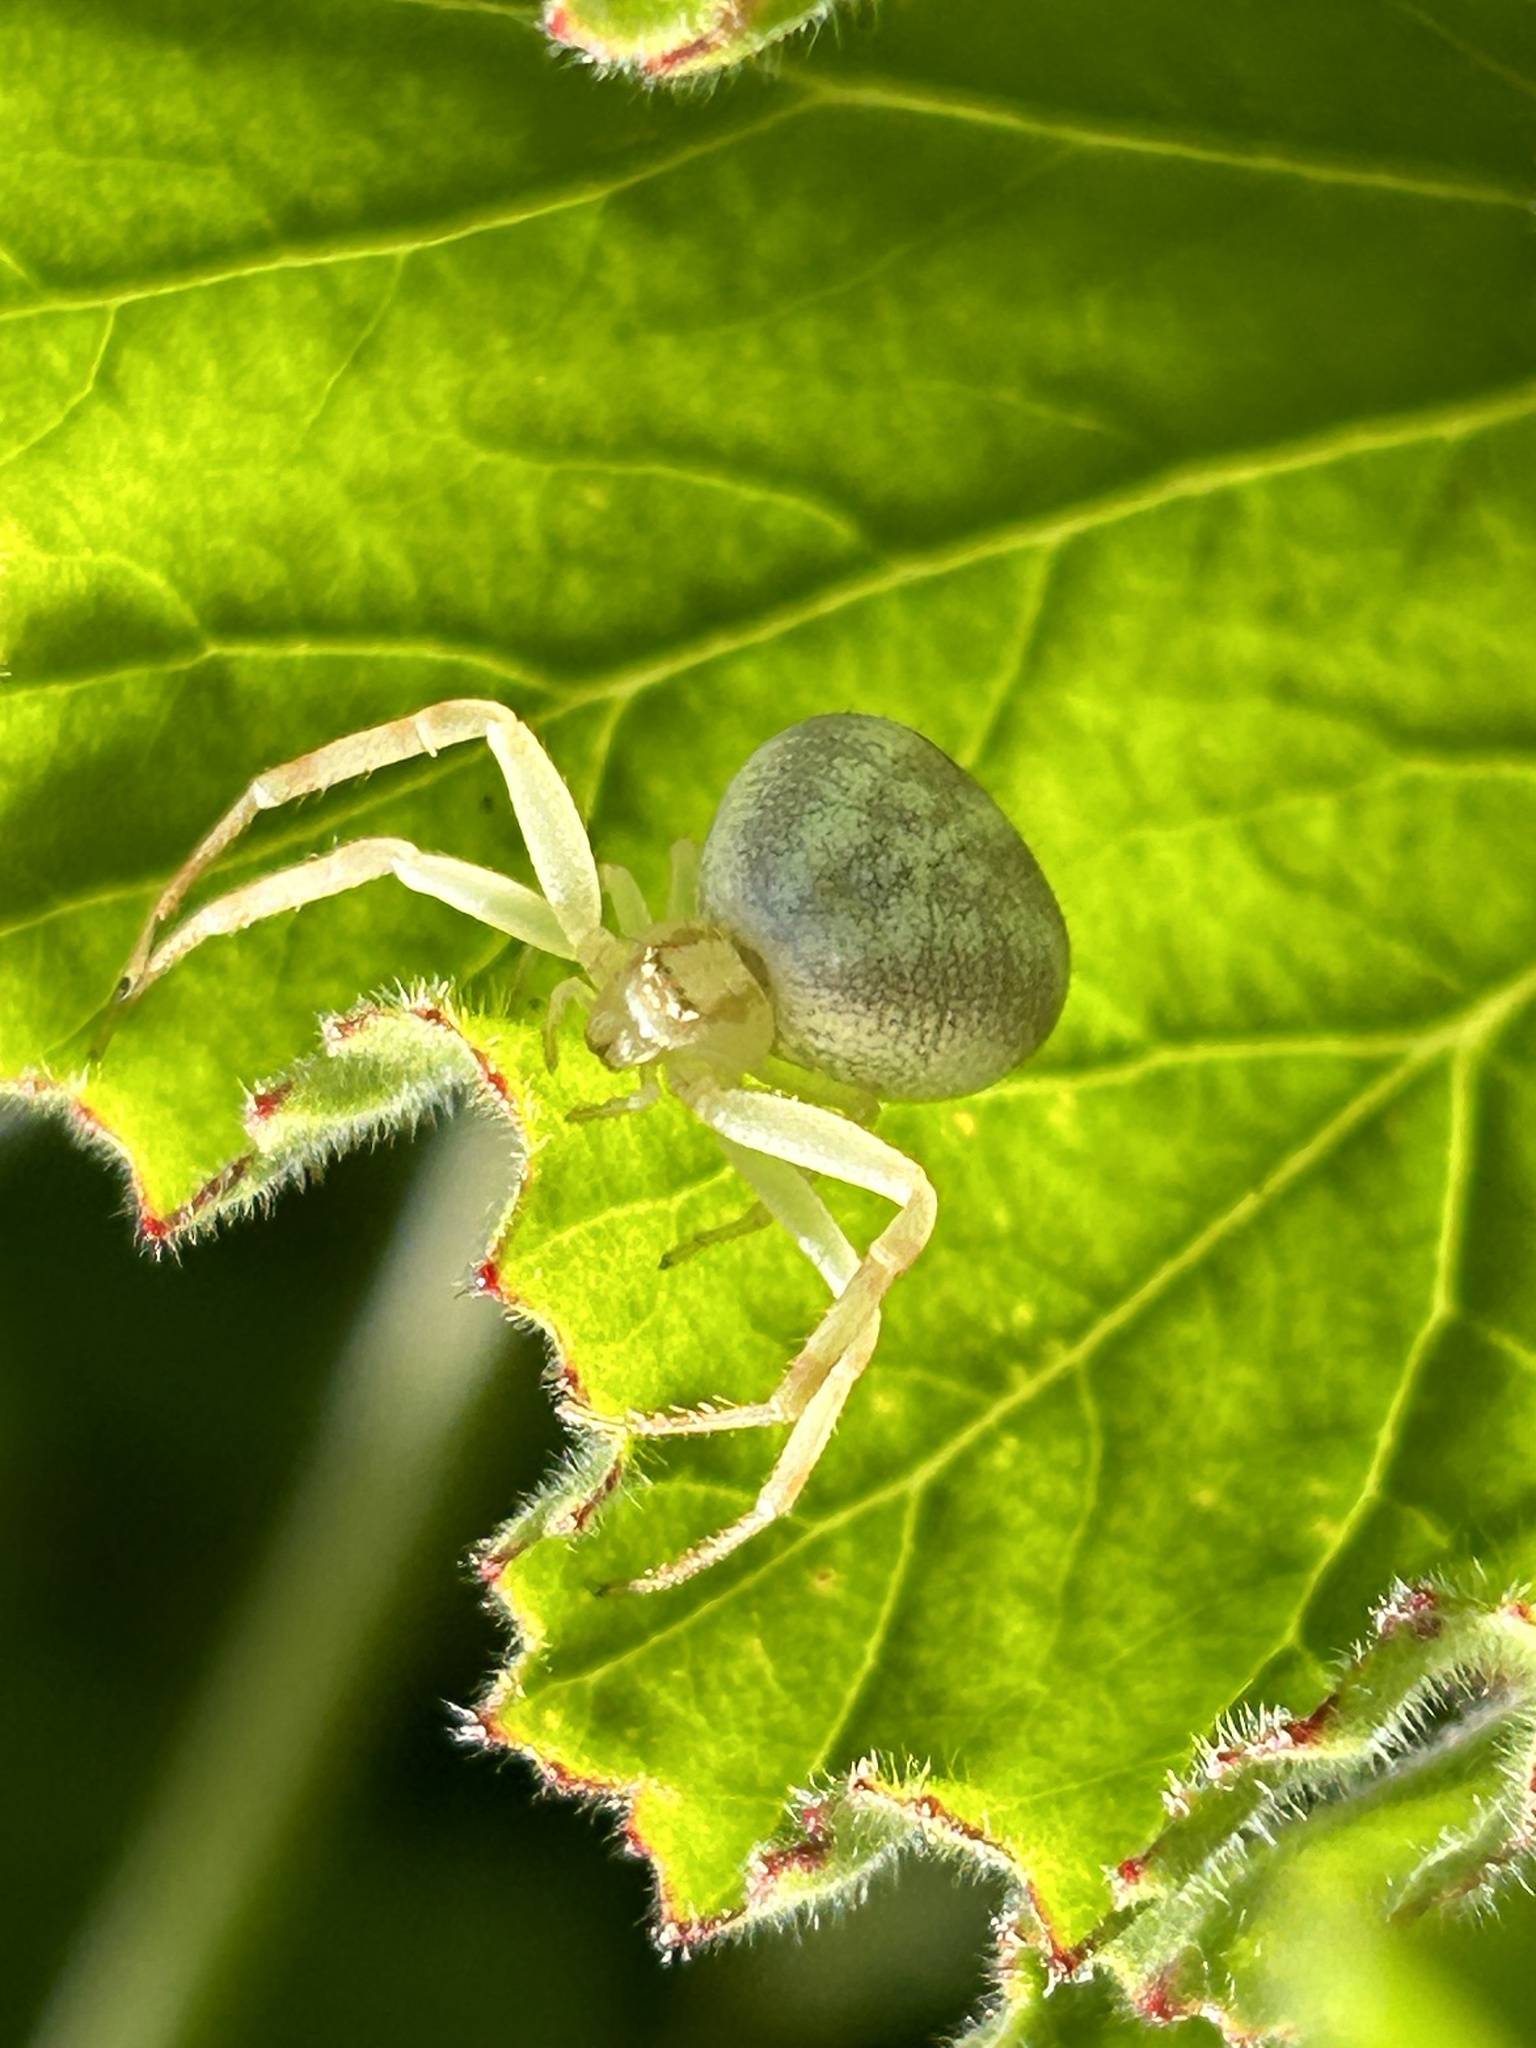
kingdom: Animalia
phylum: Arthropoda
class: Arachnida
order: Araneae
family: Thomisidae
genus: Misumena
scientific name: Misumena vatia
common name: Goldenrod crab spider
